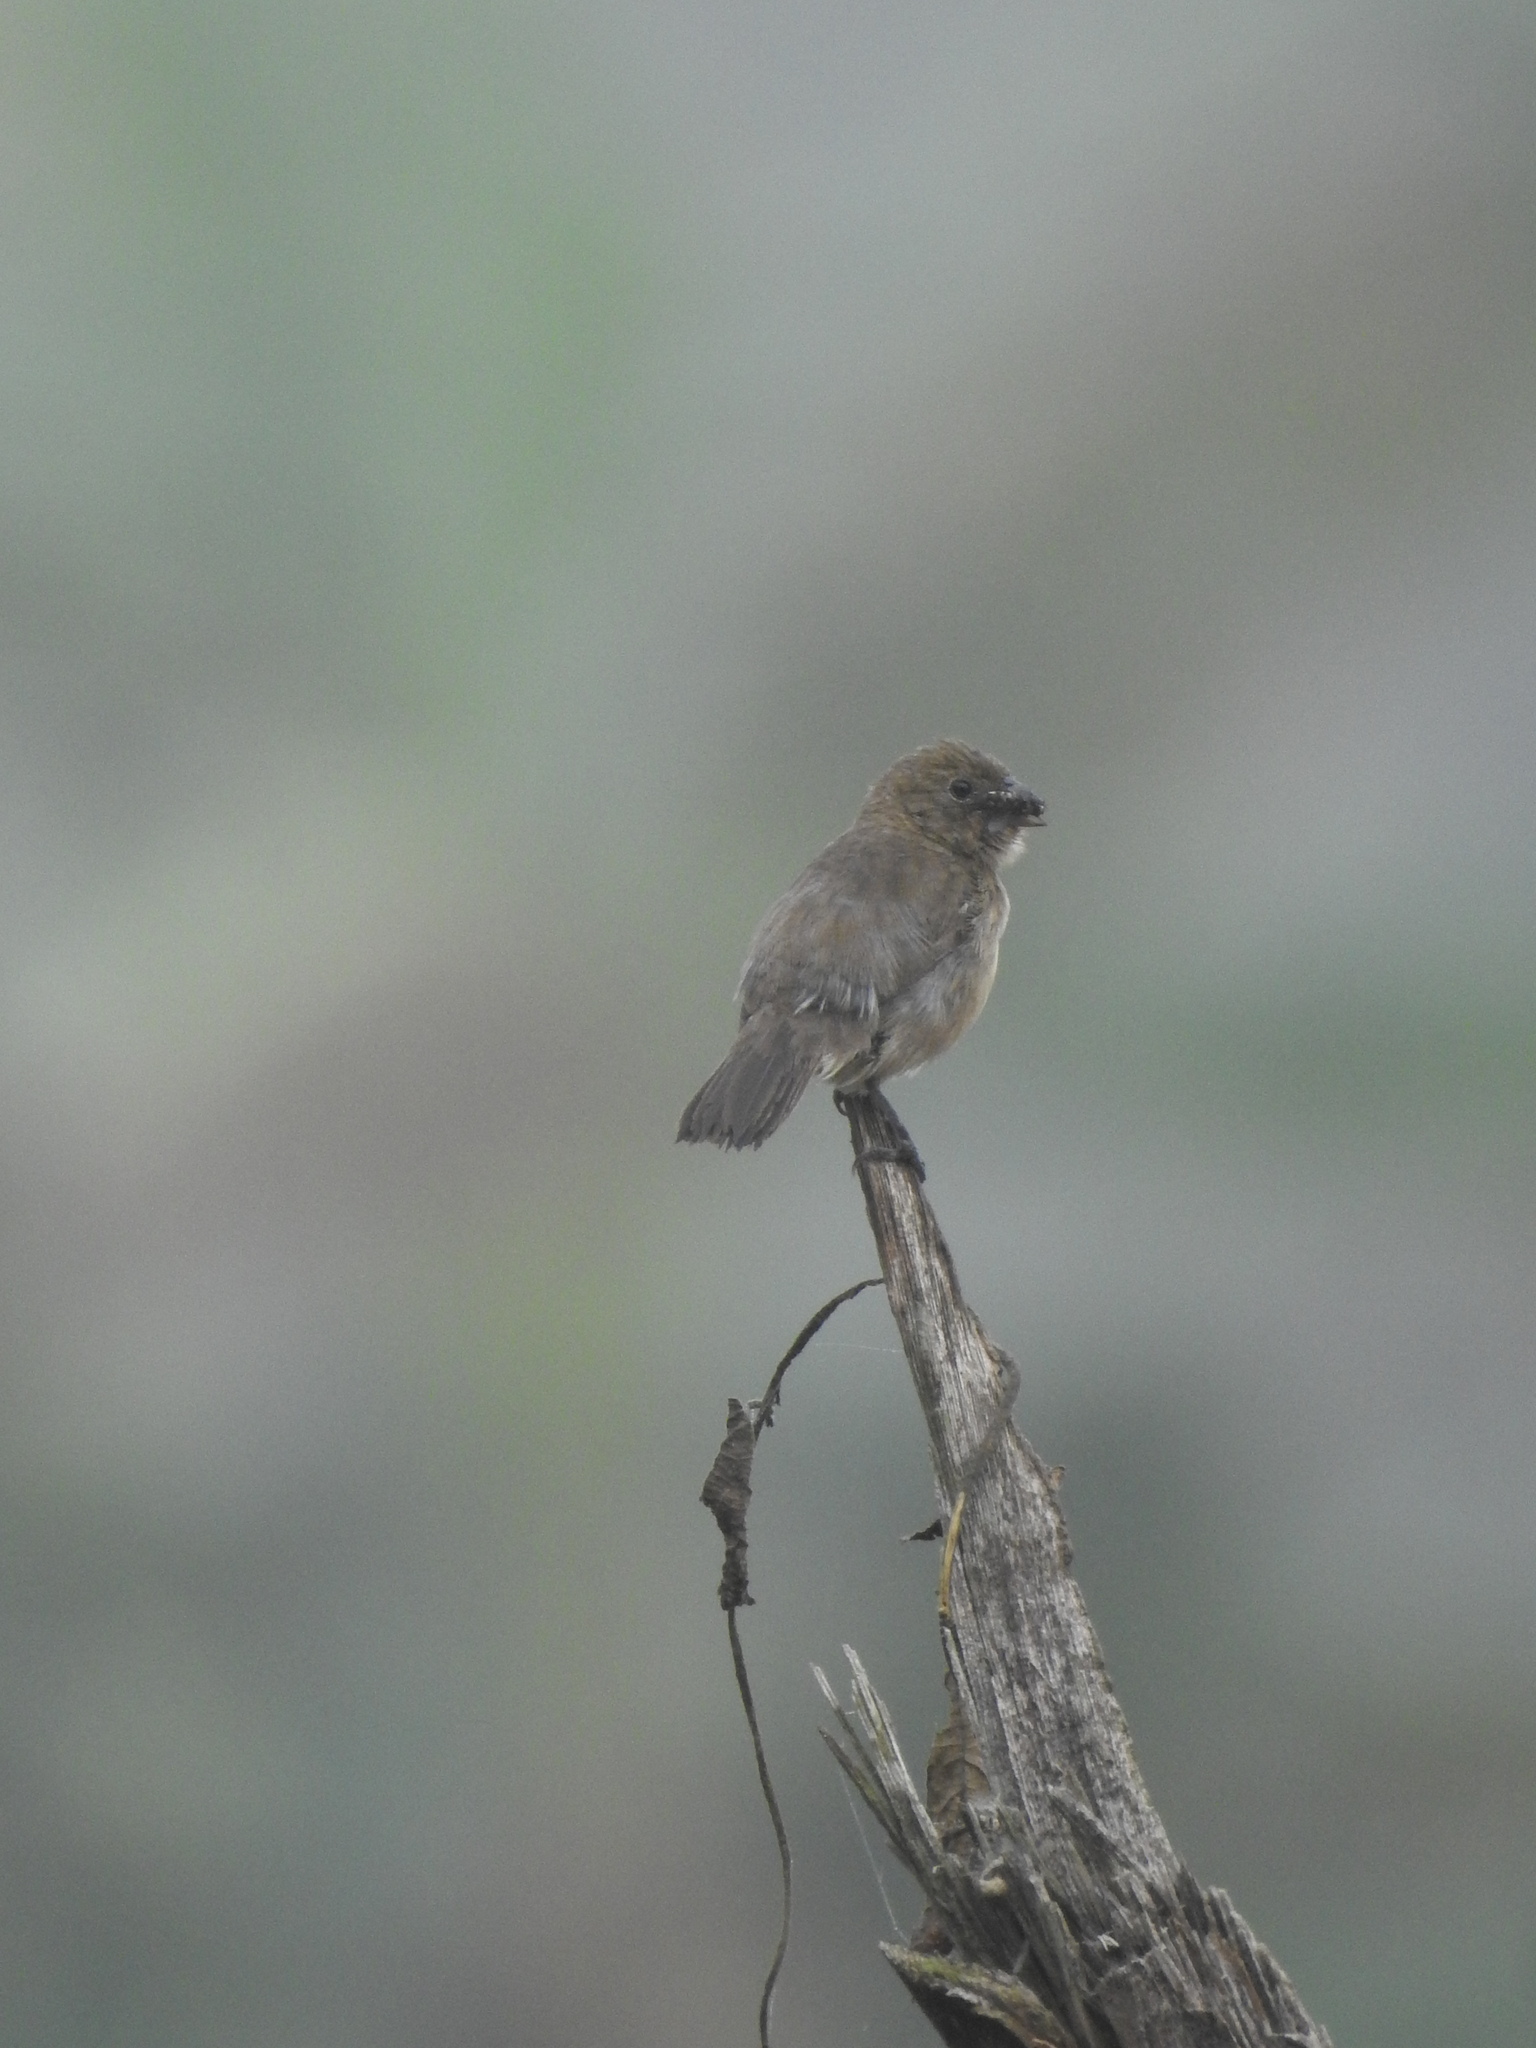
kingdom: Animalia
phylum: Chordata
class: Aves
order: Passeriformes
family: Thraupidae
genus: Sporophila
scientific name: Sporophila morelleti
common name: Morelet's seedeater
